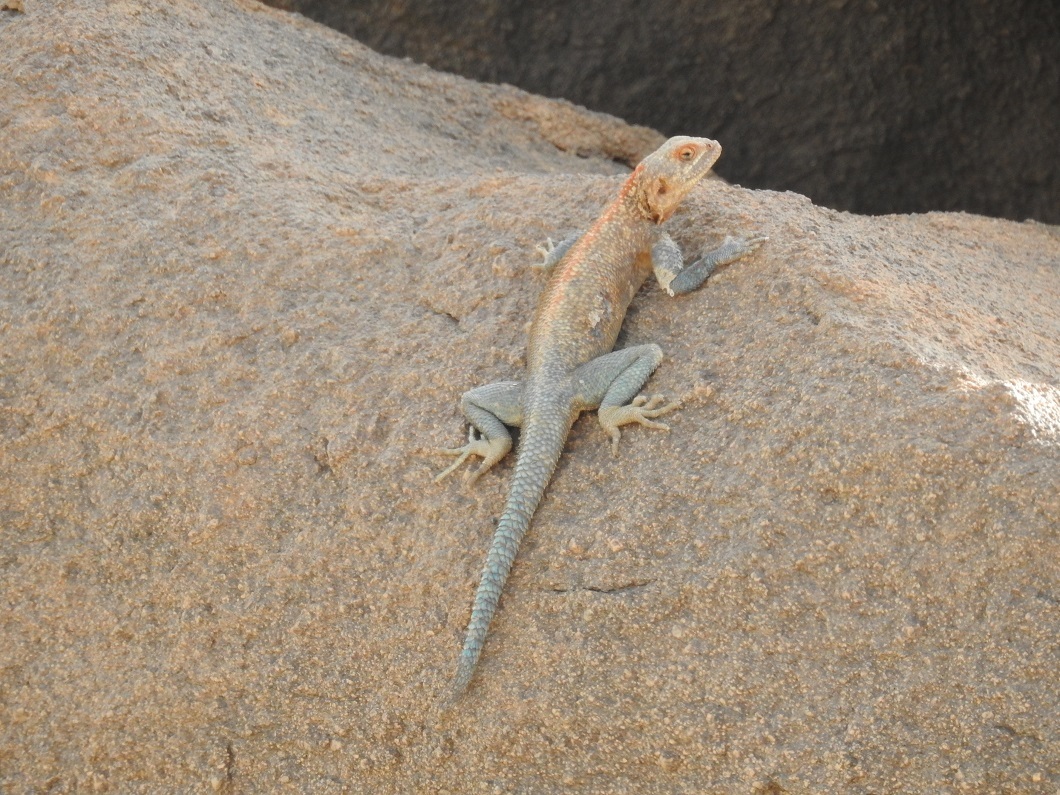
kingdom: Animalia
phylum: Chordata
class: Squamata
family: Agamidae
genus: Agama
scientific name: Agama tassiliensis
